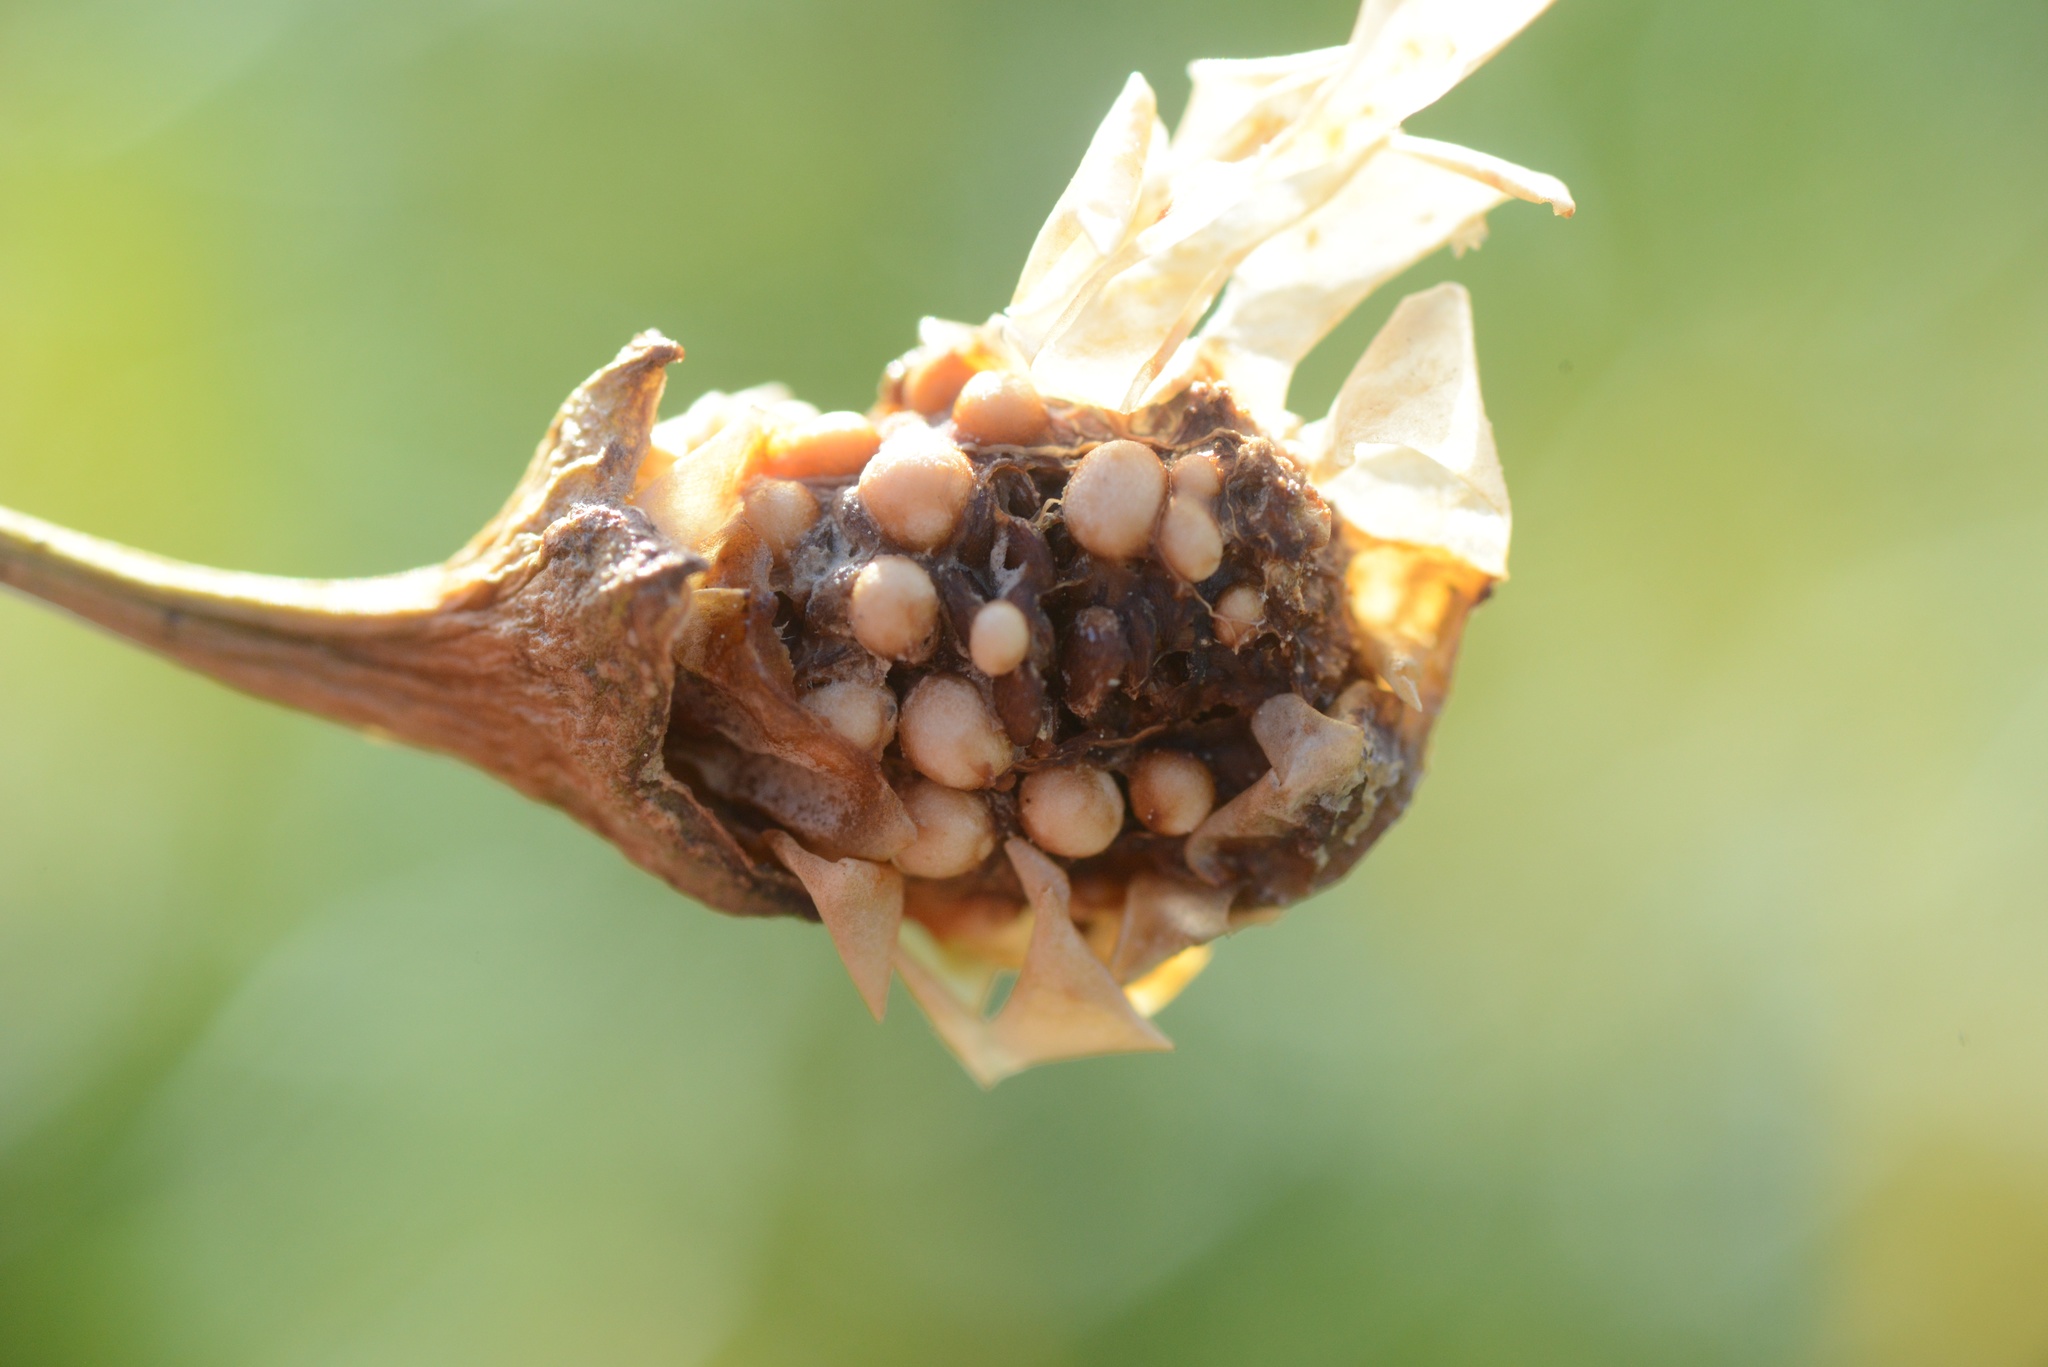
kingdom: Plantae
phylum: Tracheophyta
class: Magnoliopsida
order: Solanales
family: Solanaceae
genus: Solanum
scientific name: Solanum laciniatum
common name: Kangaroo-apple
